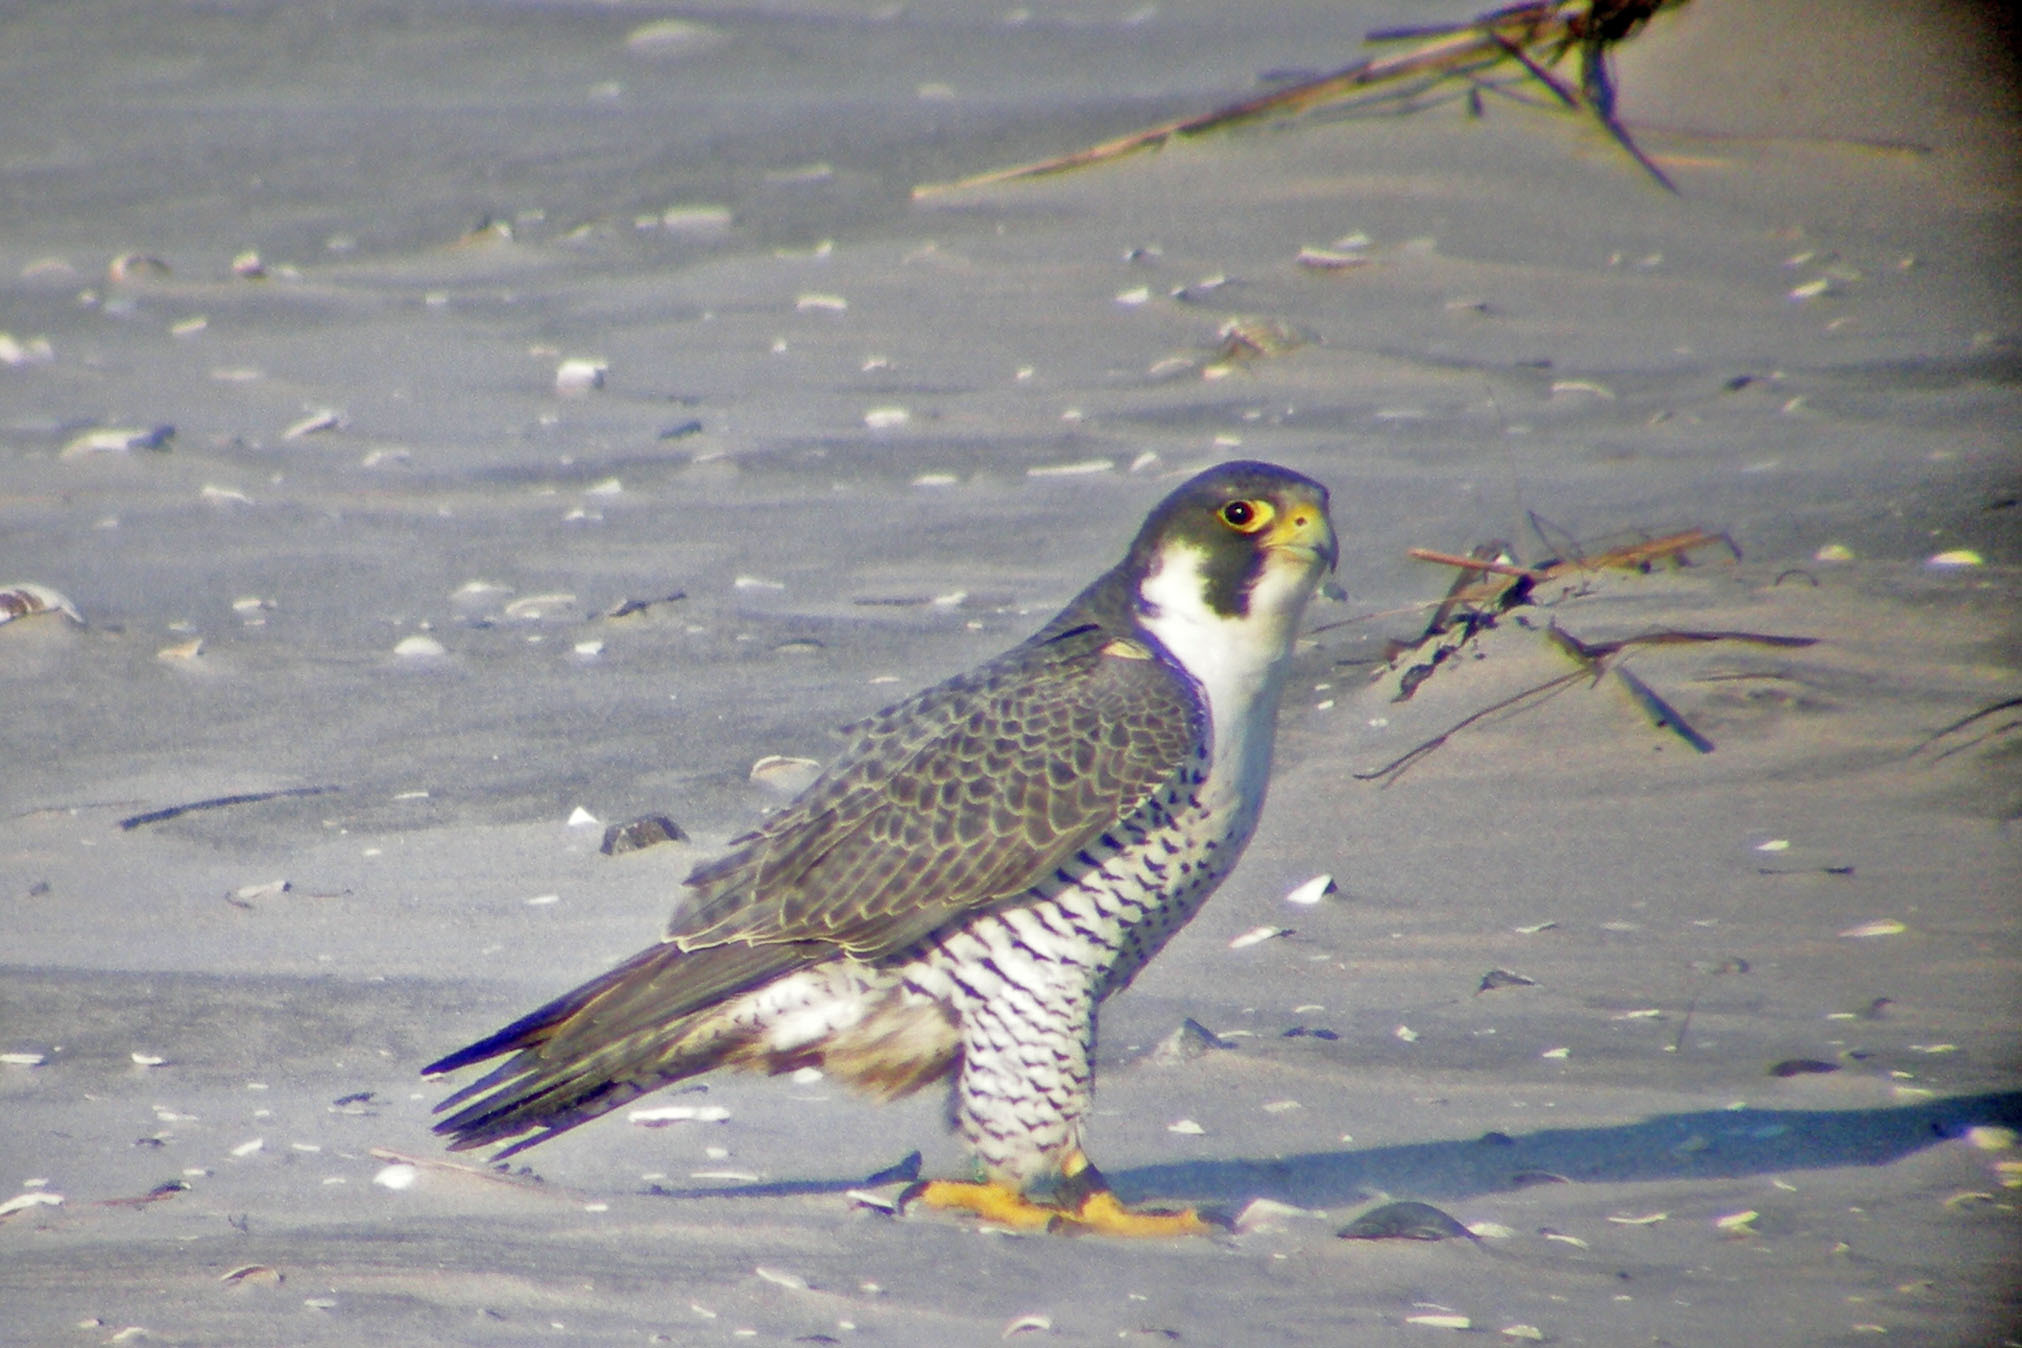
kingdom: Animalia
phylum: Chordata
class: Aves
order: Falconiformes
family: Falconidae
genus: Falco
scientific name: Falco peregrinus
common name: Peregrine falcon
